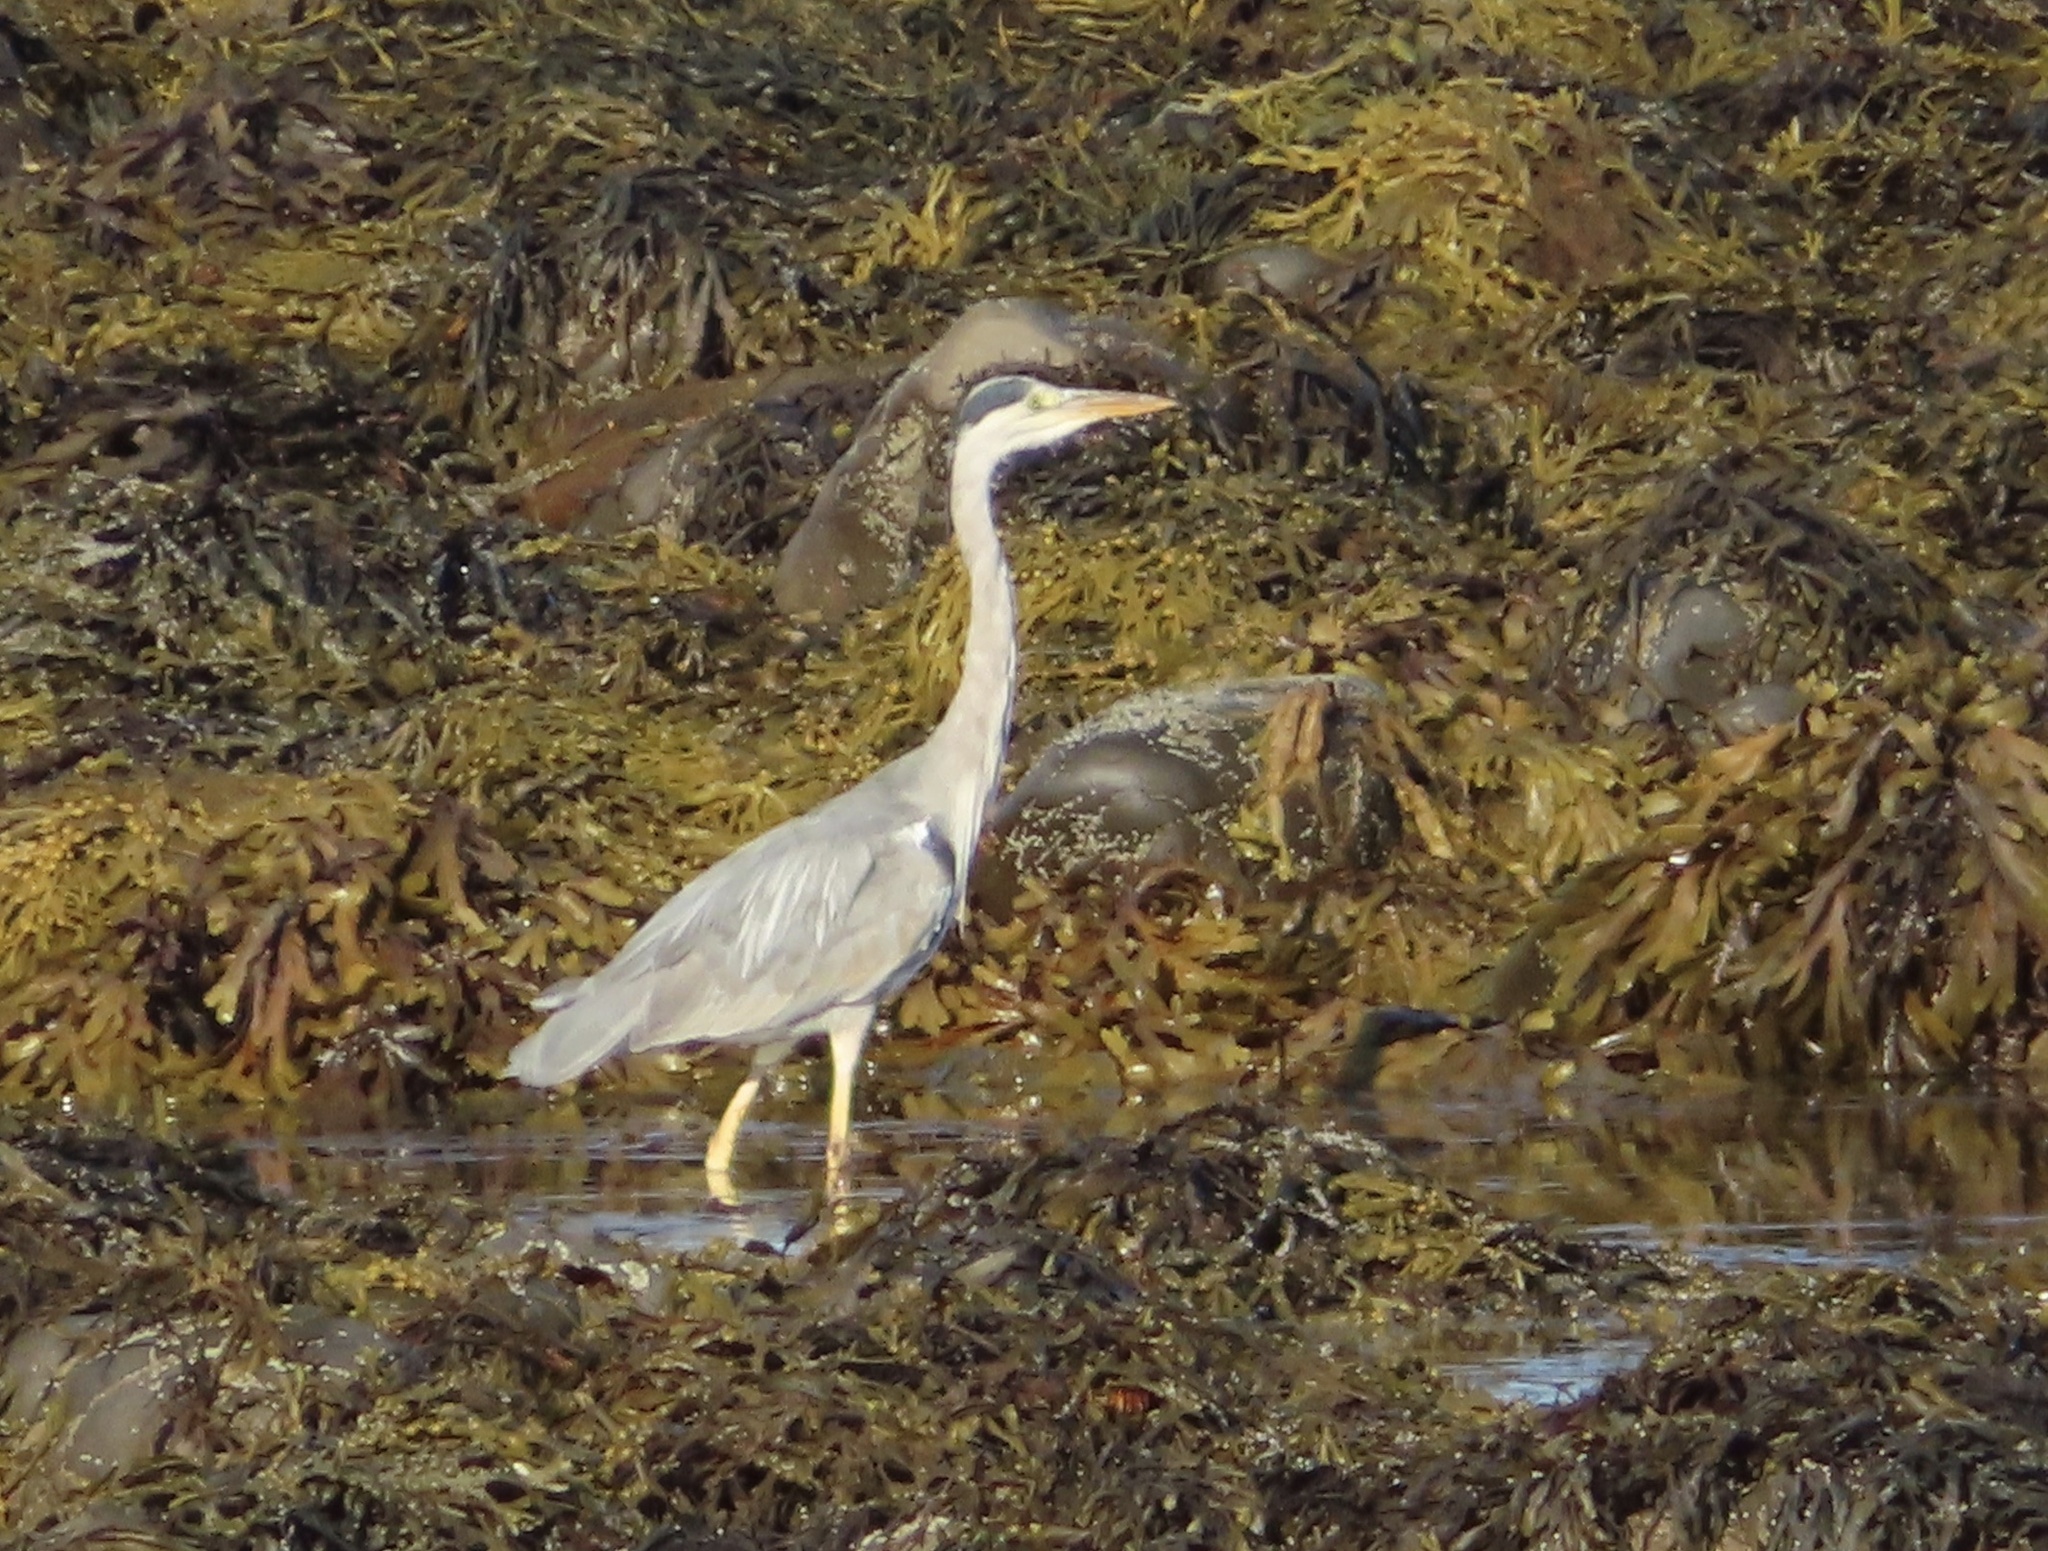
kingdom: Animalia
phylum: Chordata
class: Aves
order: Pelecaniformes
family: Ardeidae
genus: Ardea
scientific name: Ardea cinerea
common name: Grey heron
